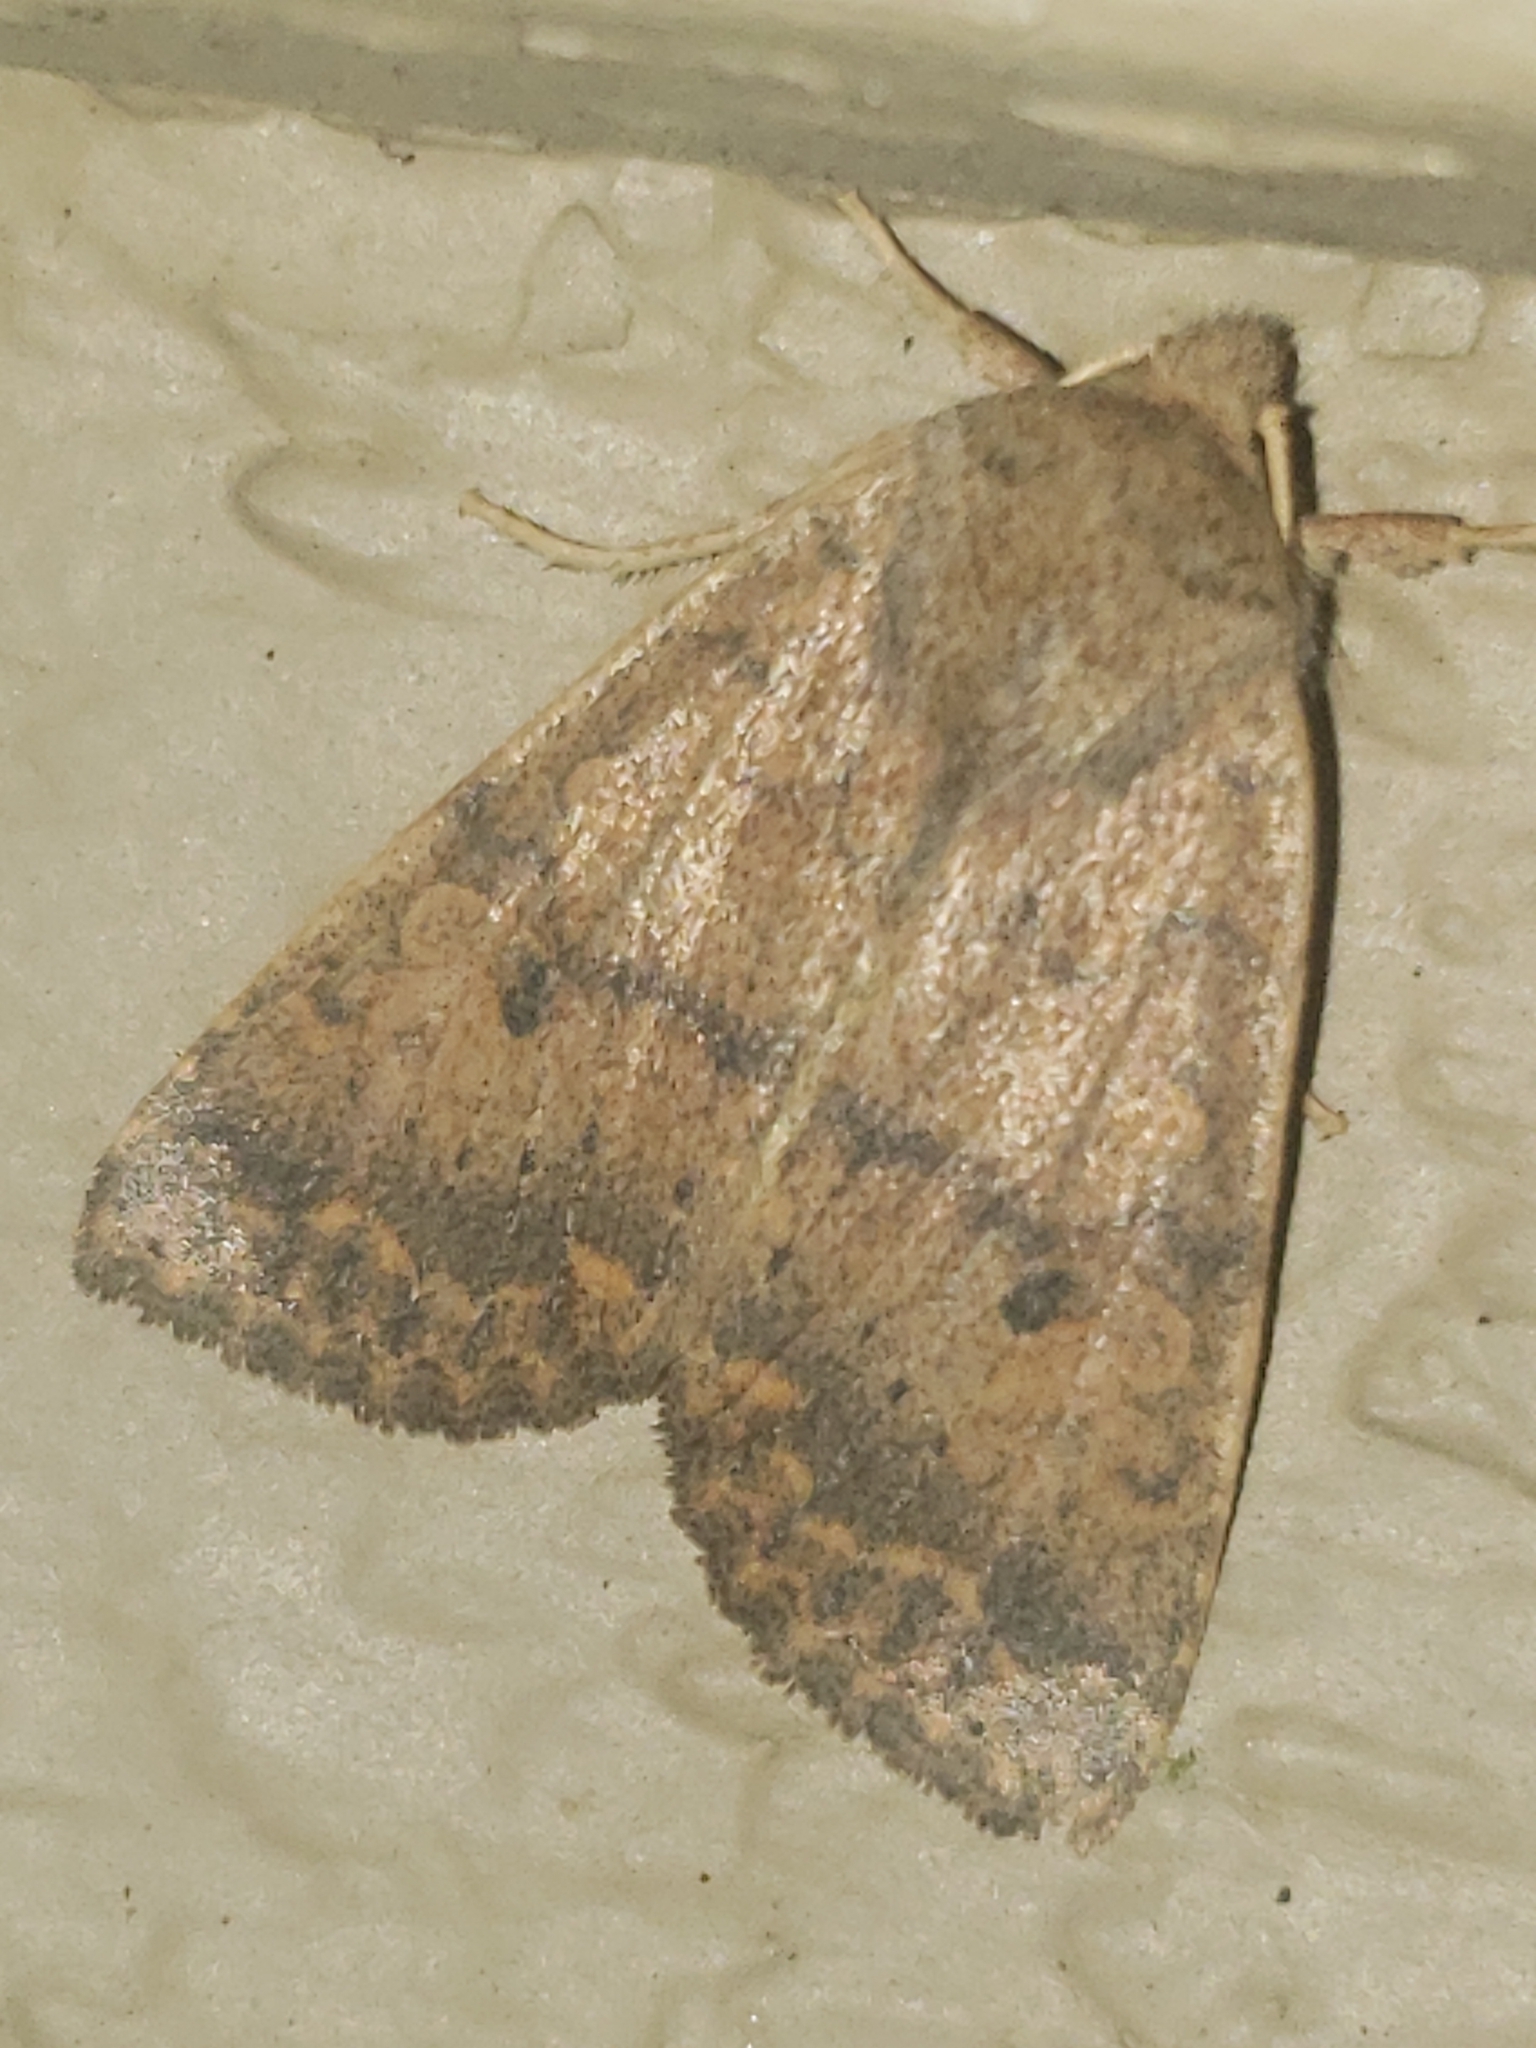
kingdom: Animalia
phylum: Arthropoda
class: Insecta
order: Lepidoptera
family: Noctuidae
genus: Agrochola
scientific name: Agrochola bicolorago
